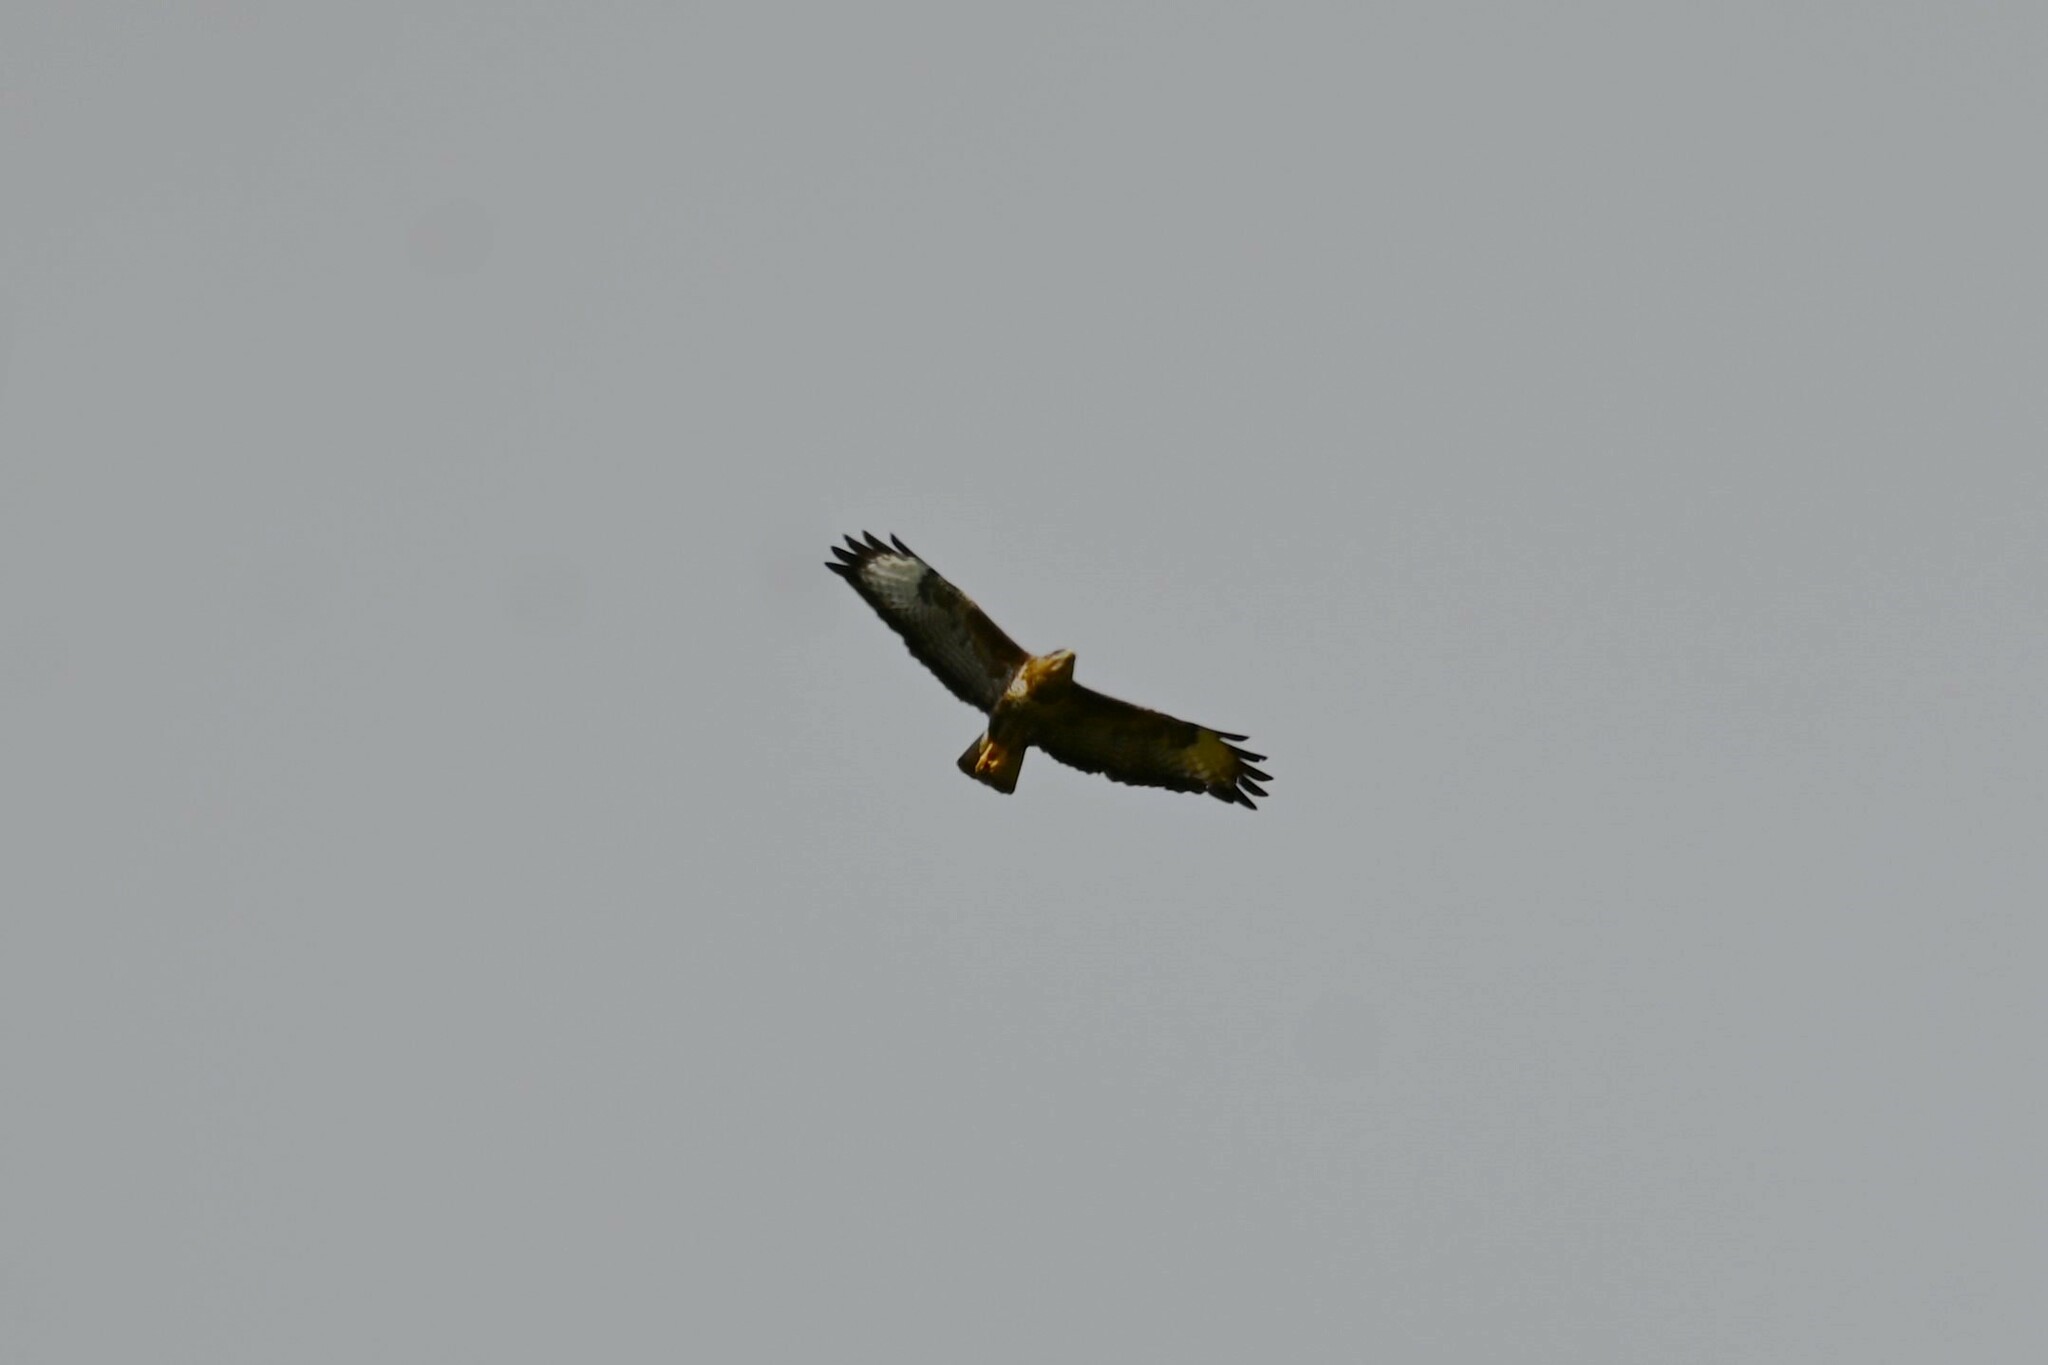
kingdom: Animalia
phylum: Chordata
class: Aves
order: Accipitriformes
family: Accipitridae
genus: Buteo
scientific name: Buteo buteo
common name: Common buzzard
